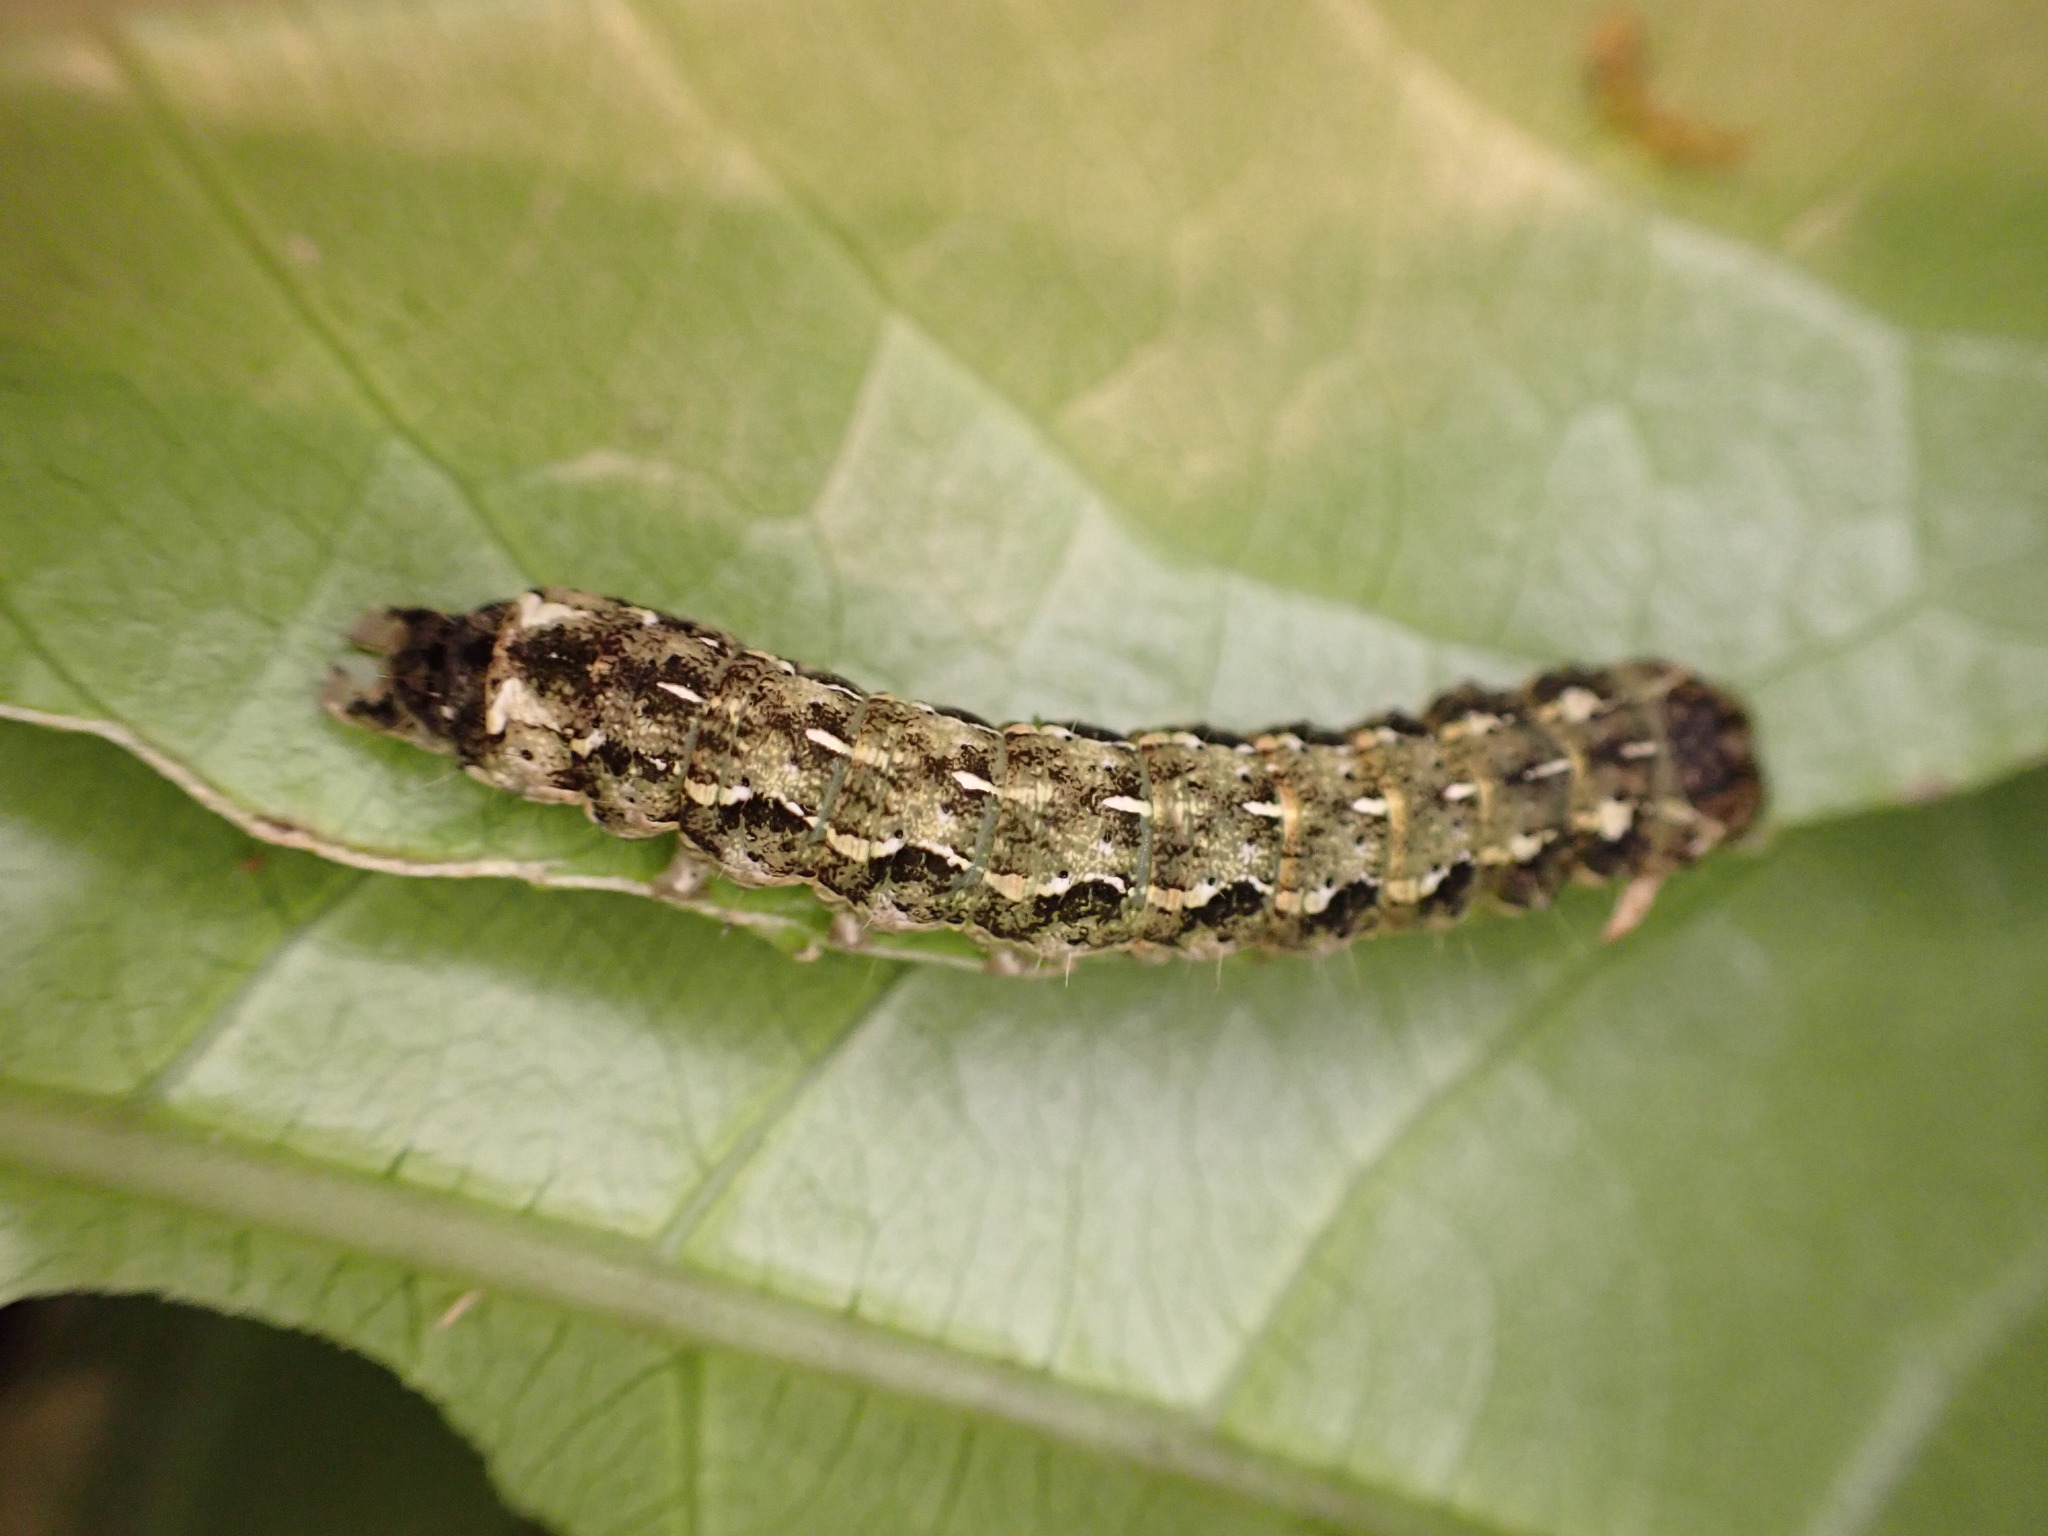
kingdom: Animalia
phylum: Arthropoda
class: Insecta
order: Lepidoptera
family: Noctuidae
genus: Feredayia
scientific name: Feredayia grammosa
